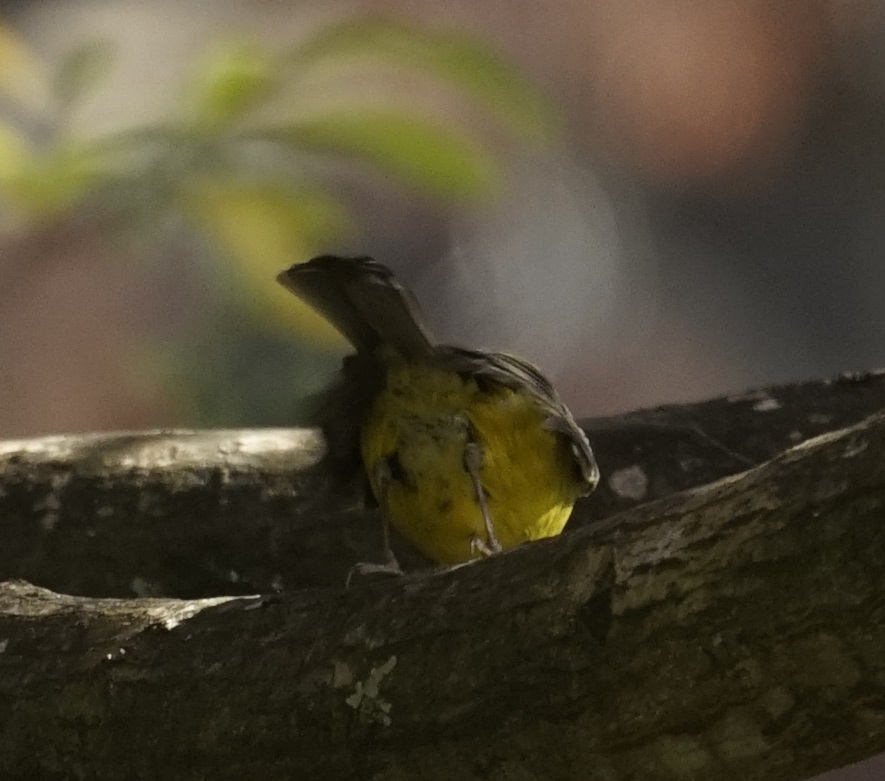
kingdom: Animalia
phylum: Chordata
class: Aves
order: Passeriformes
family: Petroicidae
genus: Eopsaltria
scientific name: Eopsaltria australis
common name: Eastern yellow robin
